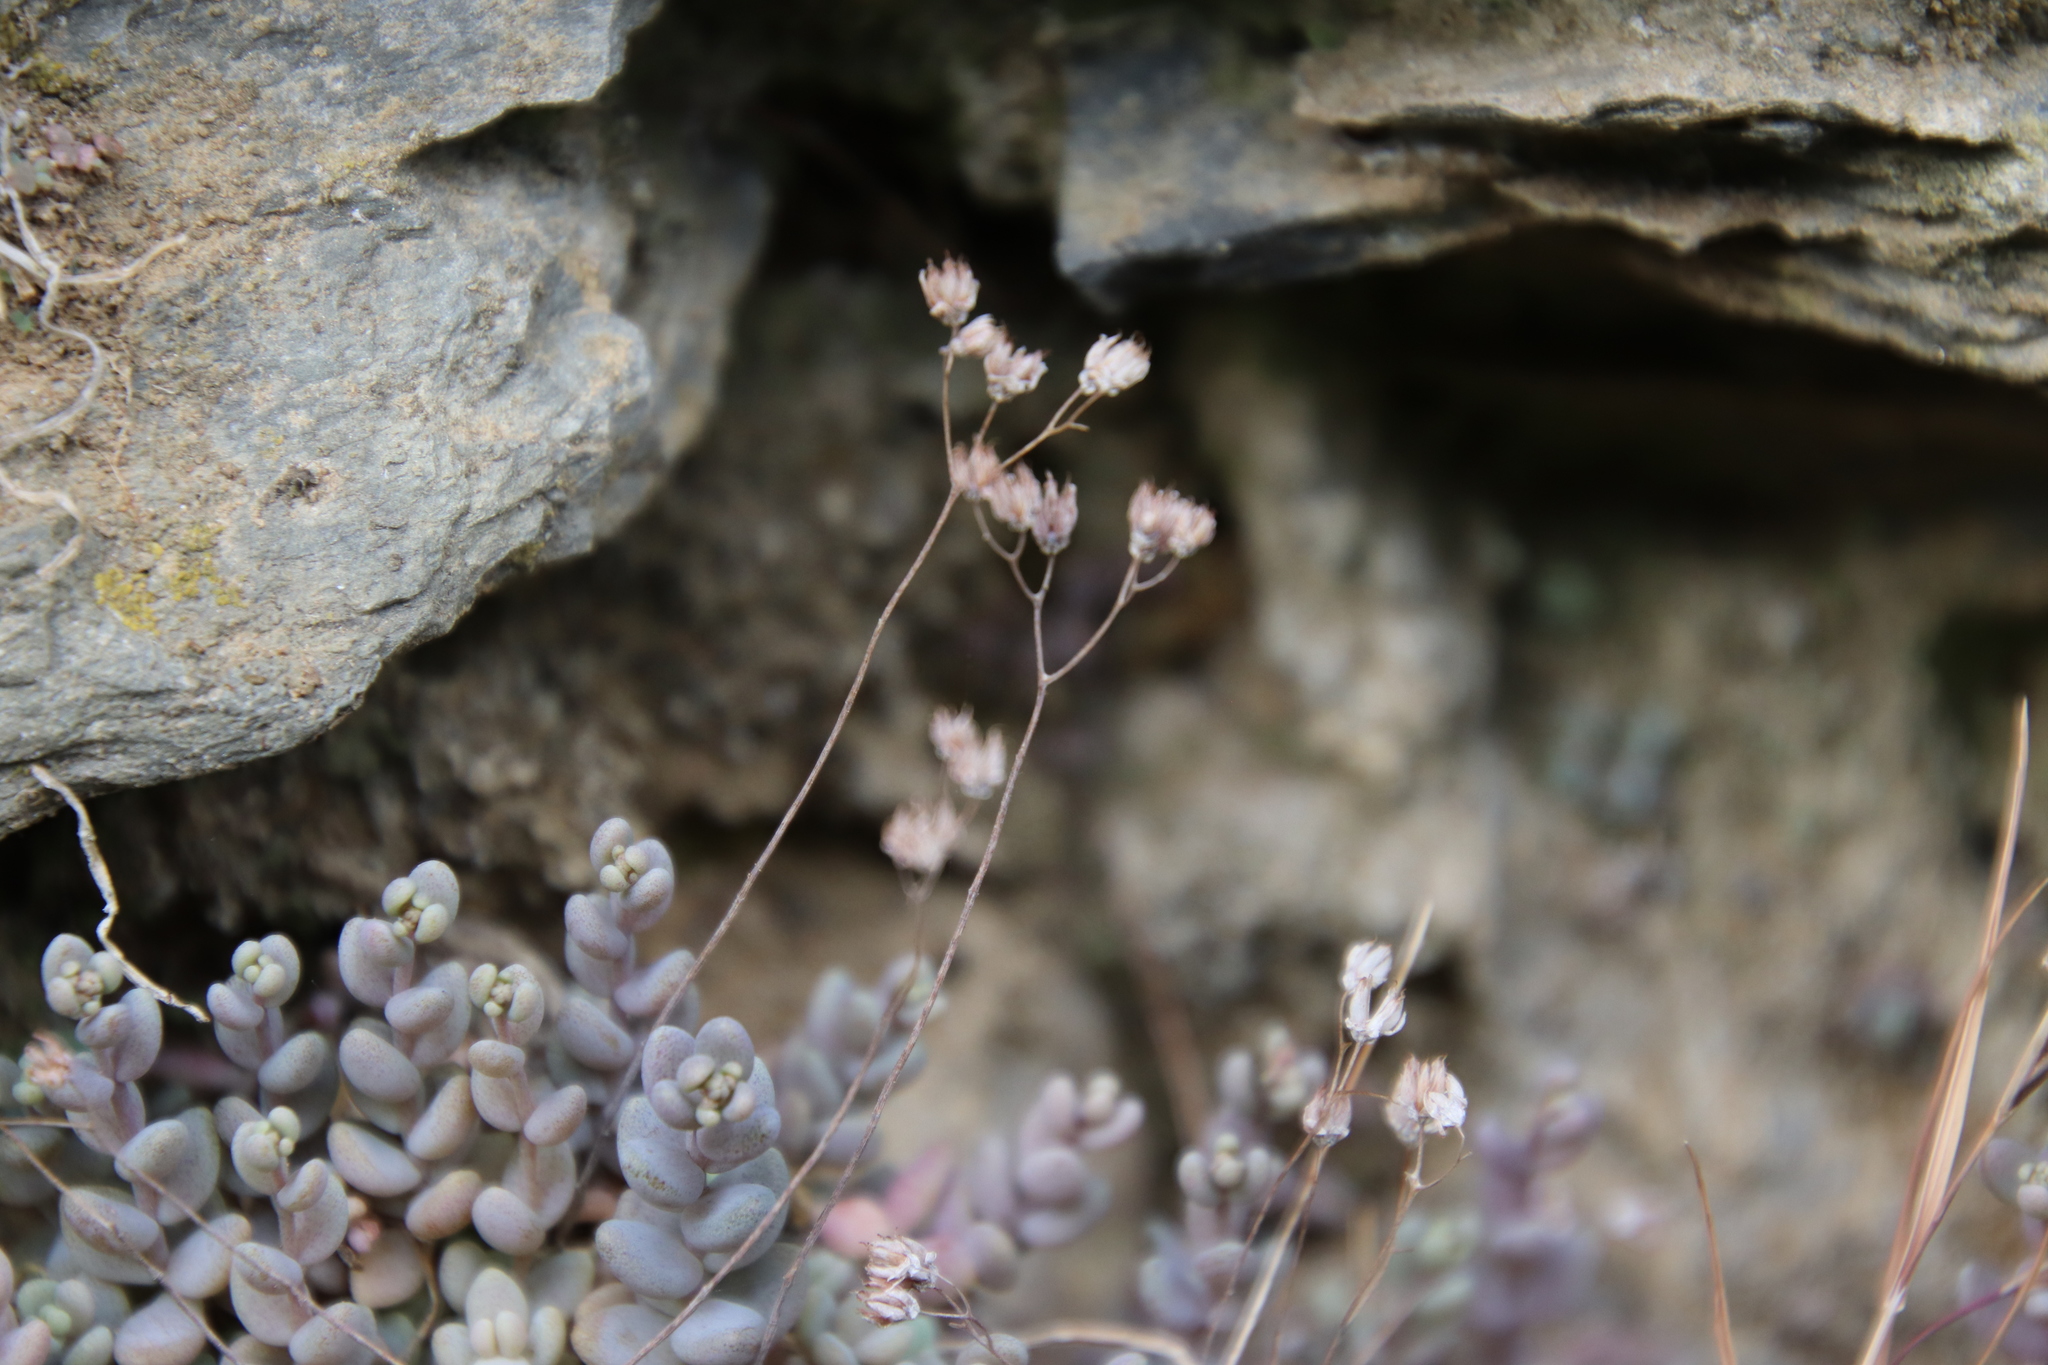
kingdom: Plantae
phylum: Tracheophyta
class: Magnoliopsida
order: Saxifragales
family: Crassulaceae
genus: Sedum
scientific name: Sedum dasyphyllum
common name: Thick-leaf stonecrop
